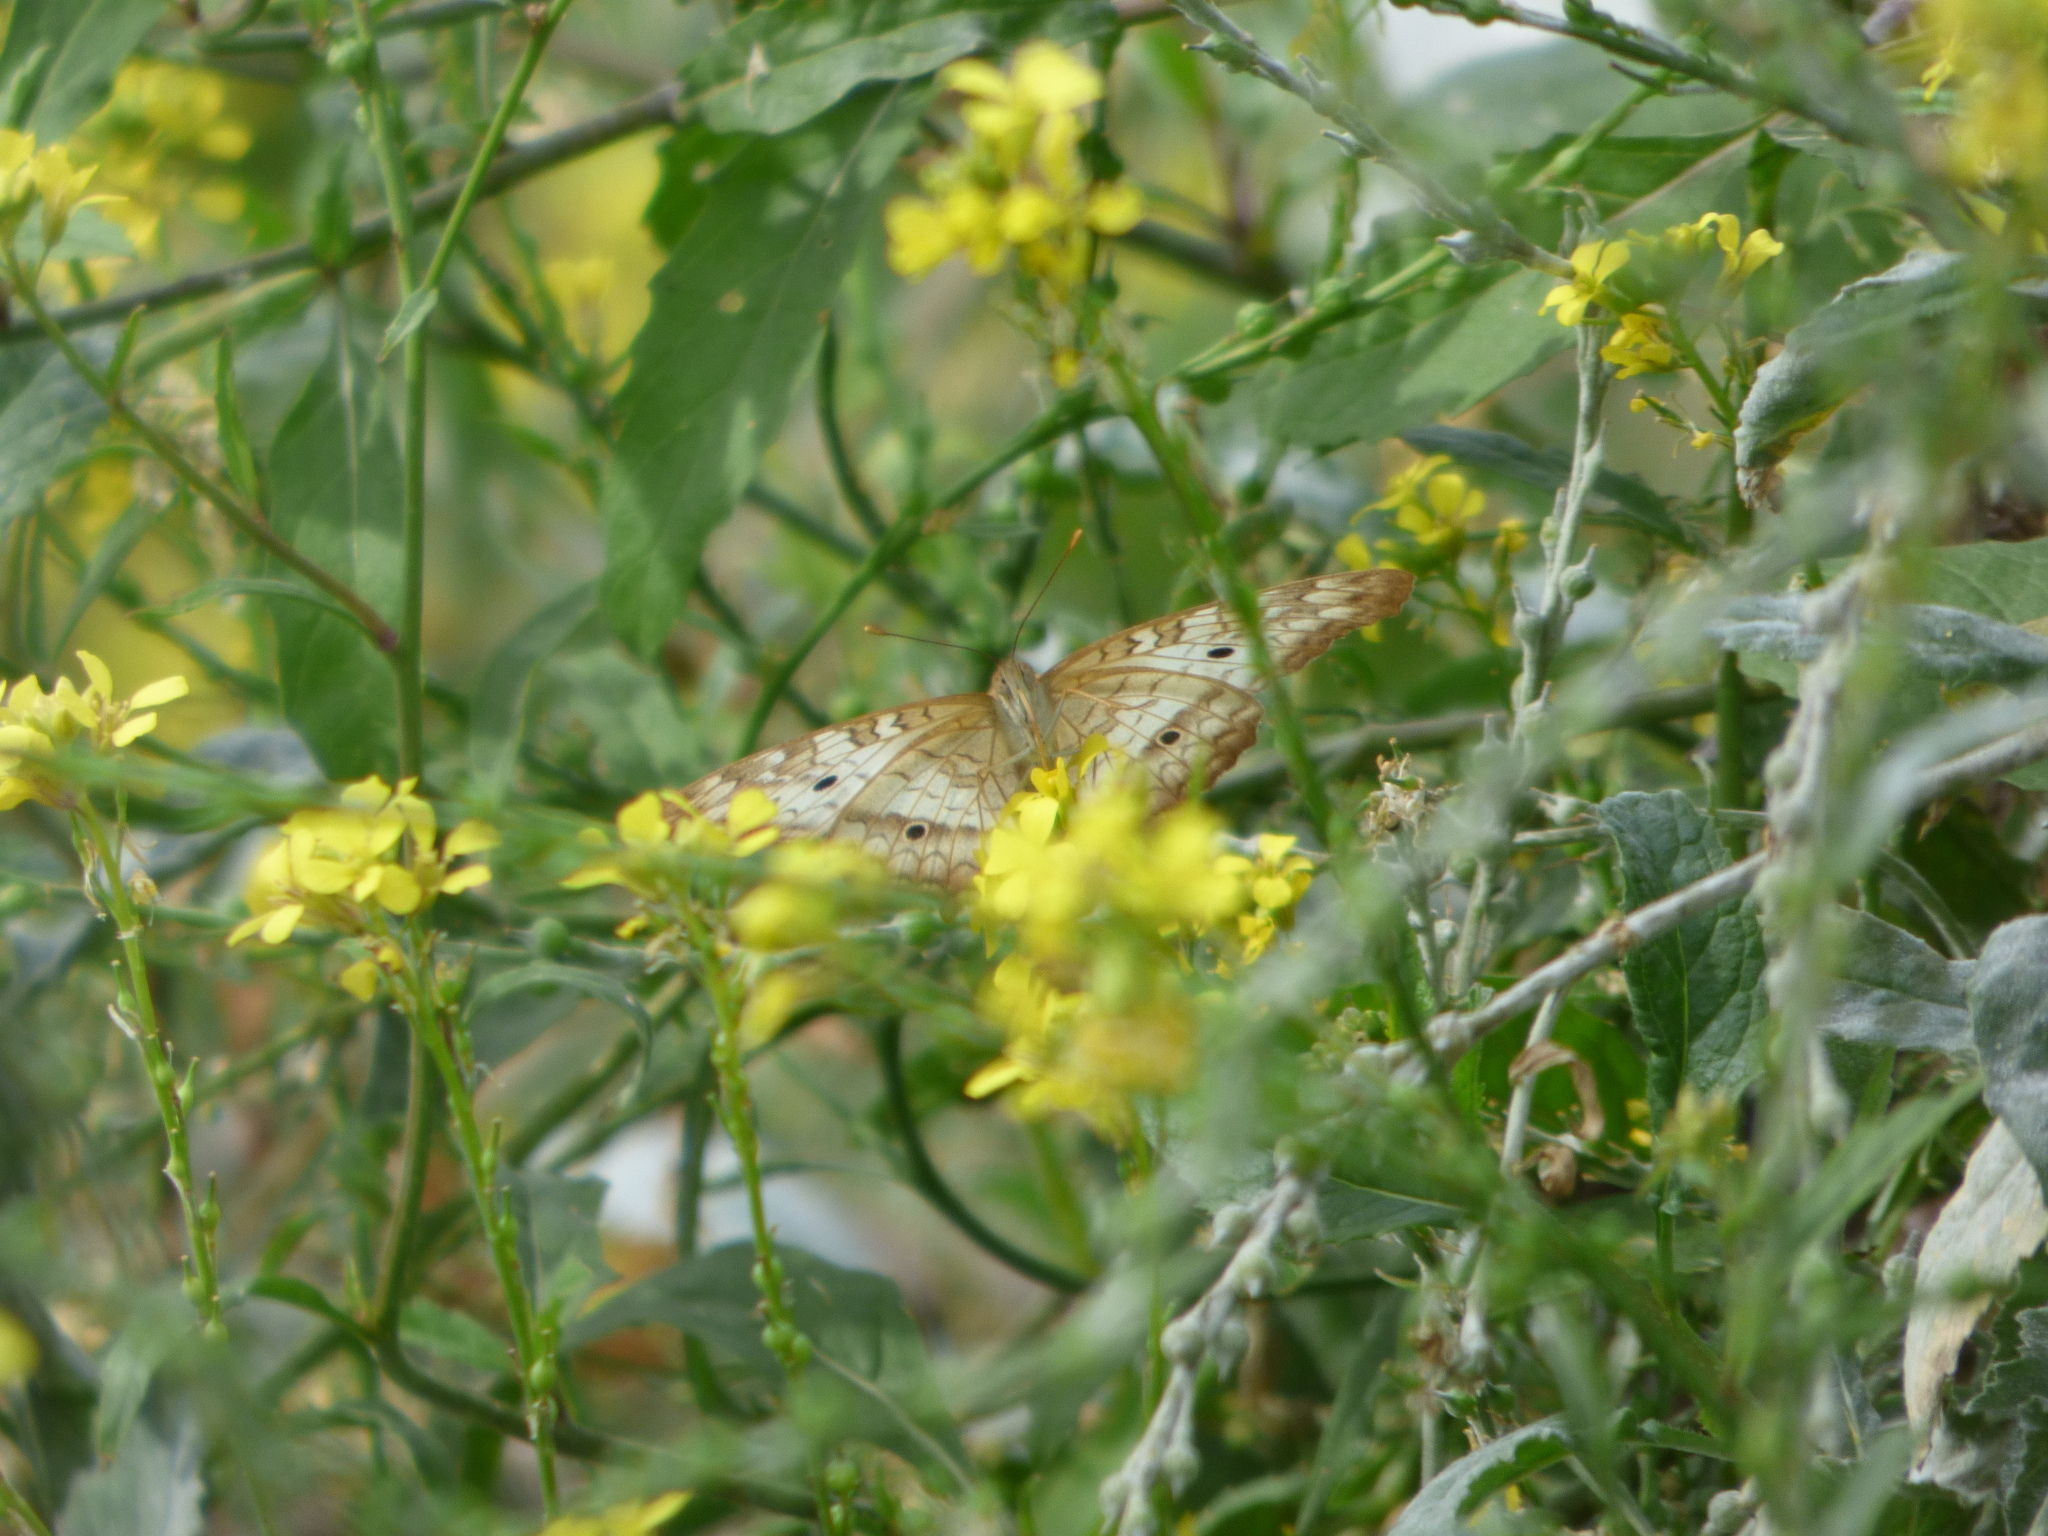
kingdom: Animalia
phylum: Arthropoda
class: Insecta
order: Lepidoptera
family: Nymphalidae
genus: Anartia
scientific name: Anartia jatrophae
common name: White peacock
